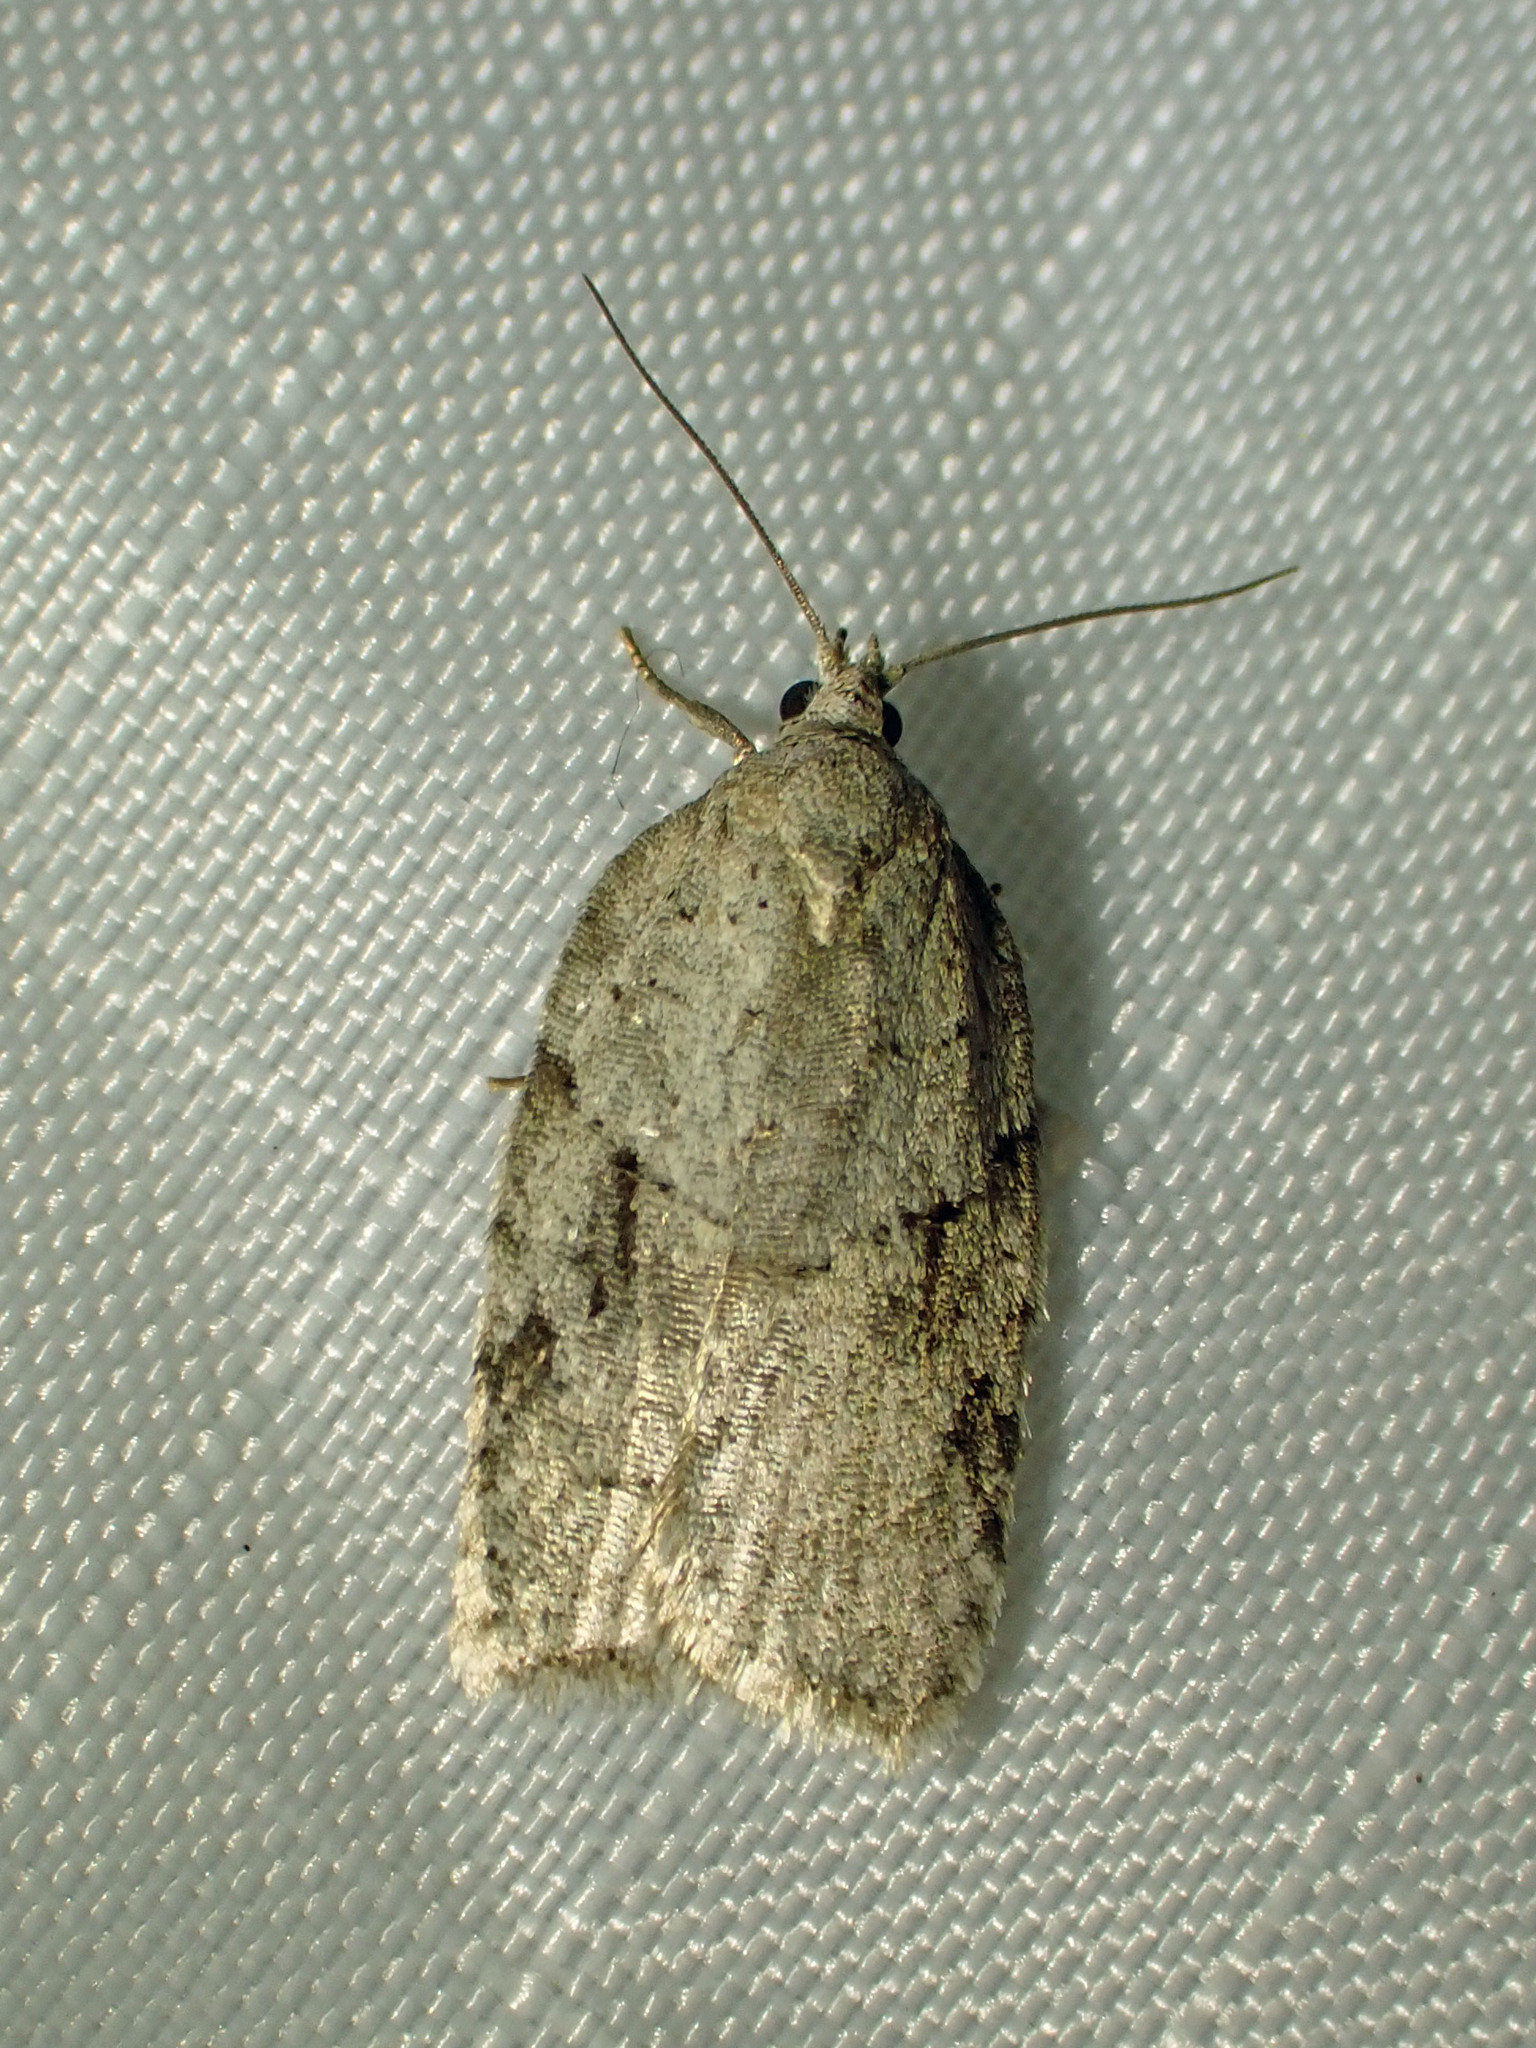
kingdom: Animalia
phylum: Arthropoda
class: Insecta
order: Lepidoptera
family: Tortricidae
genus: Acleris
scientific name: Acleris placidana
